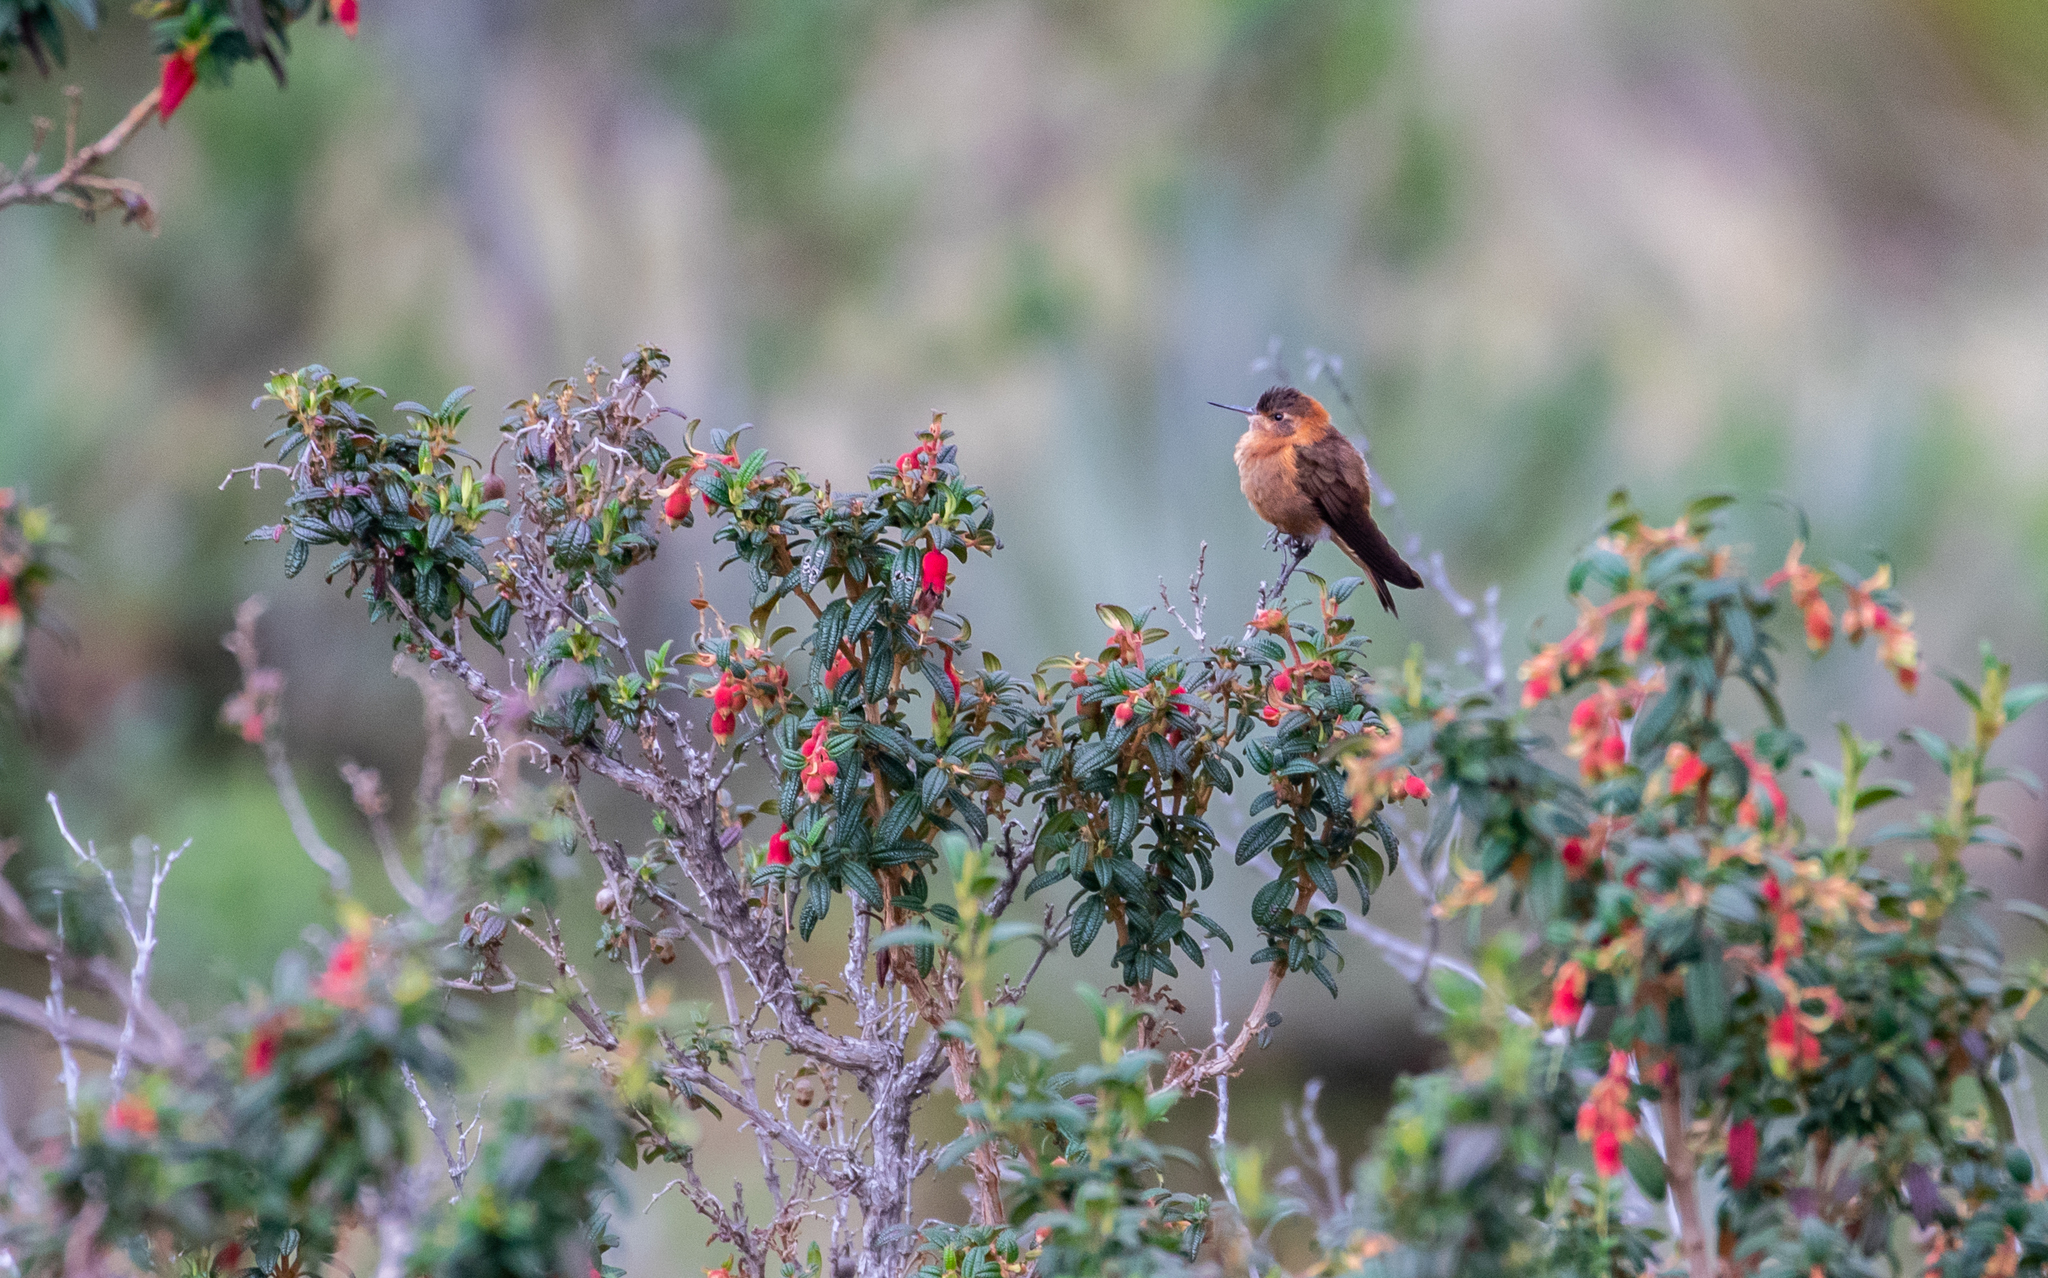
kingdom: Animalia
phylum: Chordata
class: Aves
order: Apodiformes
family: Trochilidae
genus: Aglaeactis
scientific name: Aglaeactis cupripennis
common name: Shining sunbeam
